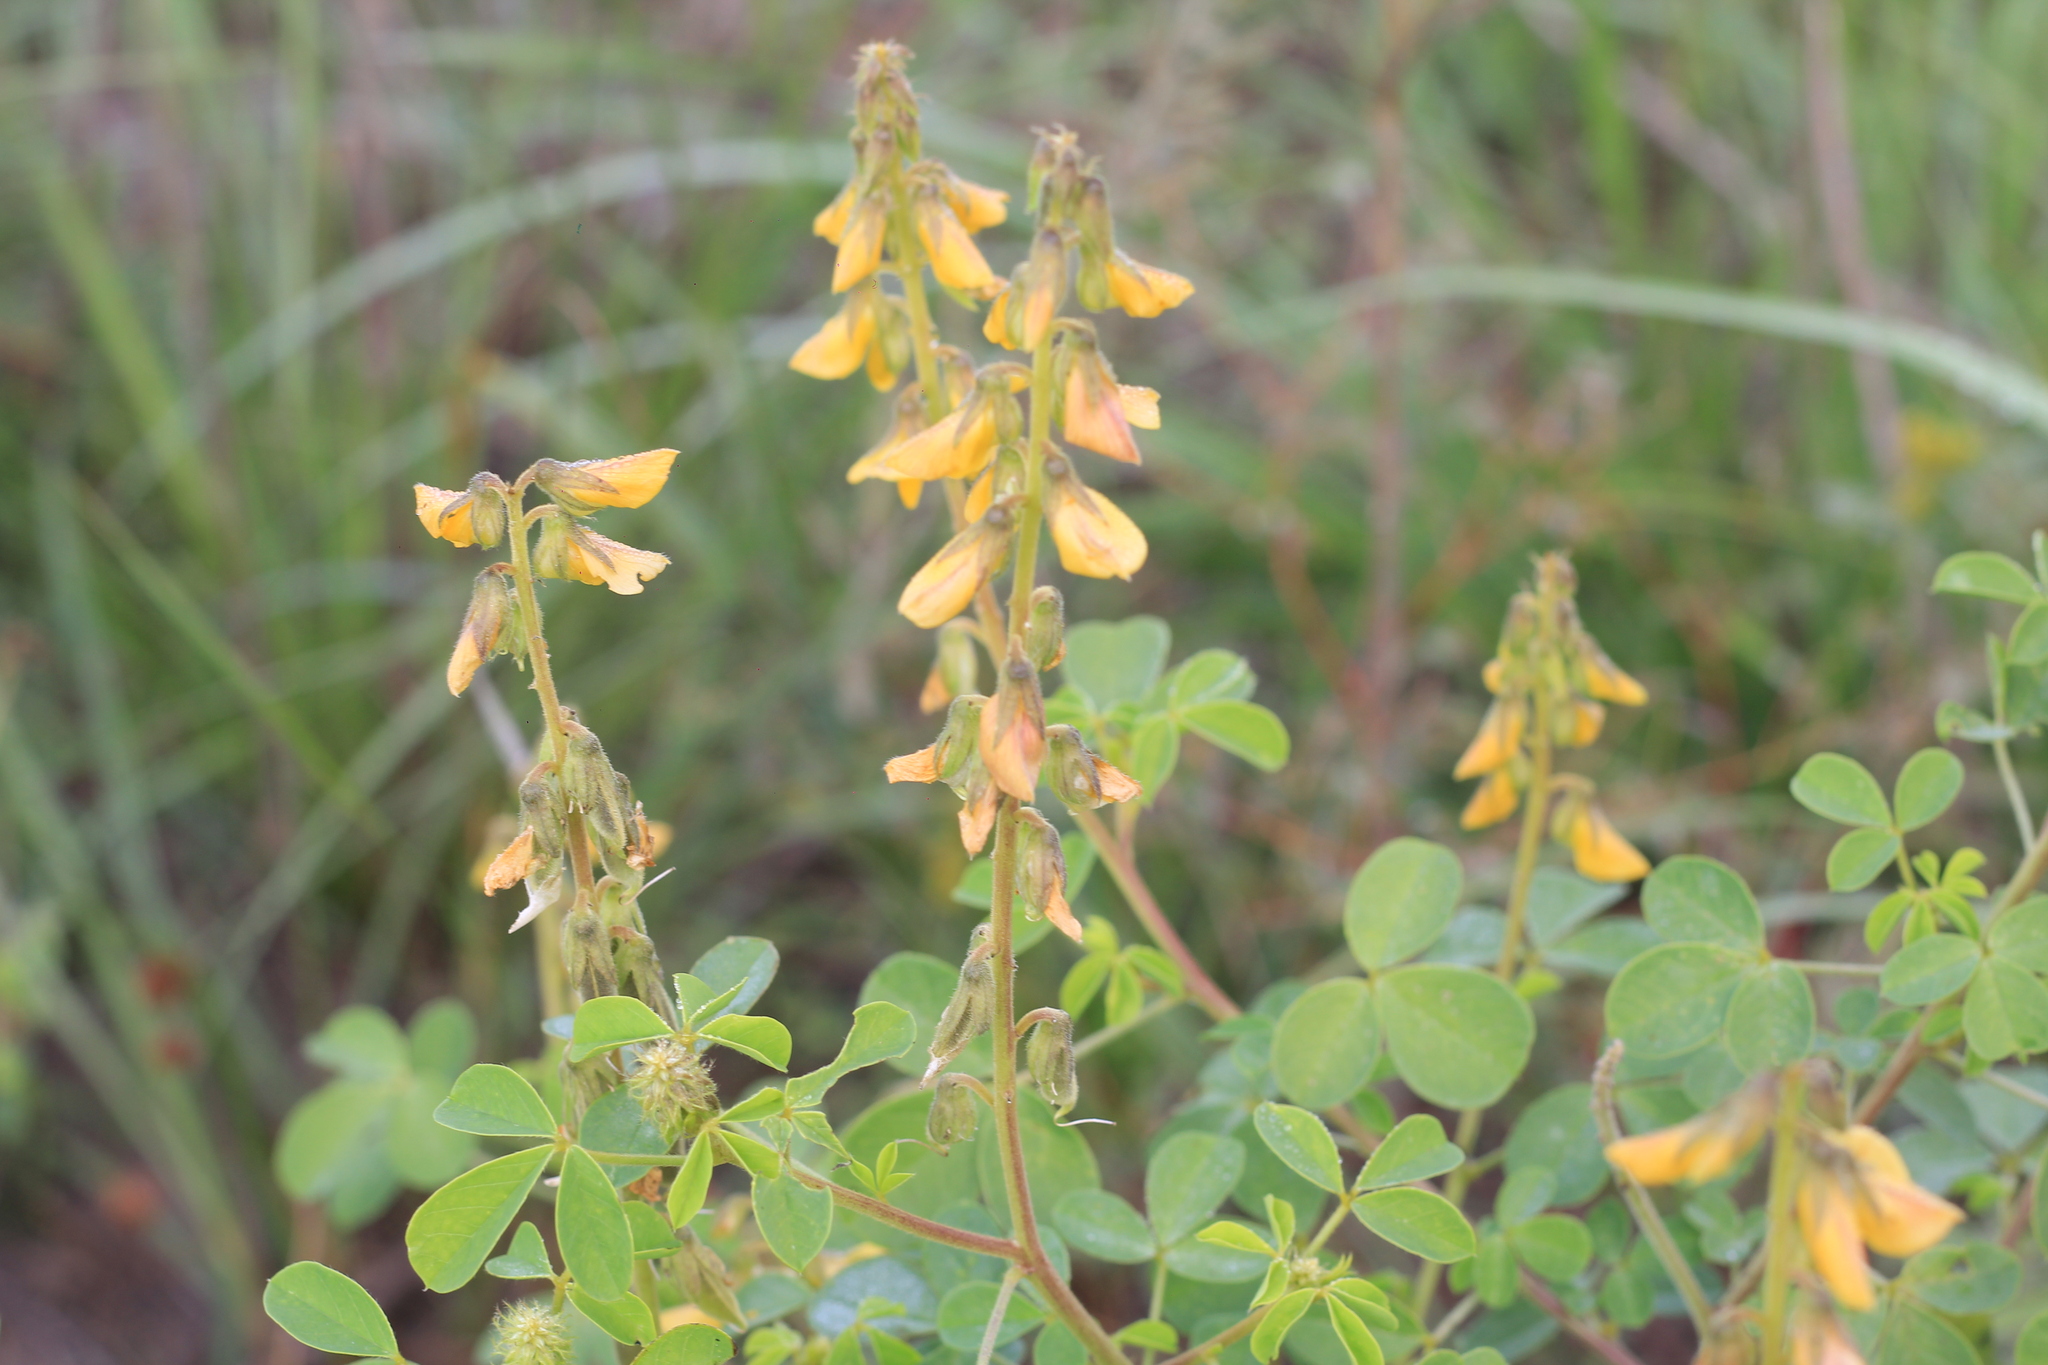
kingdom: Plantae
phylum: Tracheophyta
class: Magnoliopsida
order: Fabales
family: Fabaceae
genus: Crotalaria
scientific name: Crotalaria incana
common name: Shakeshake
